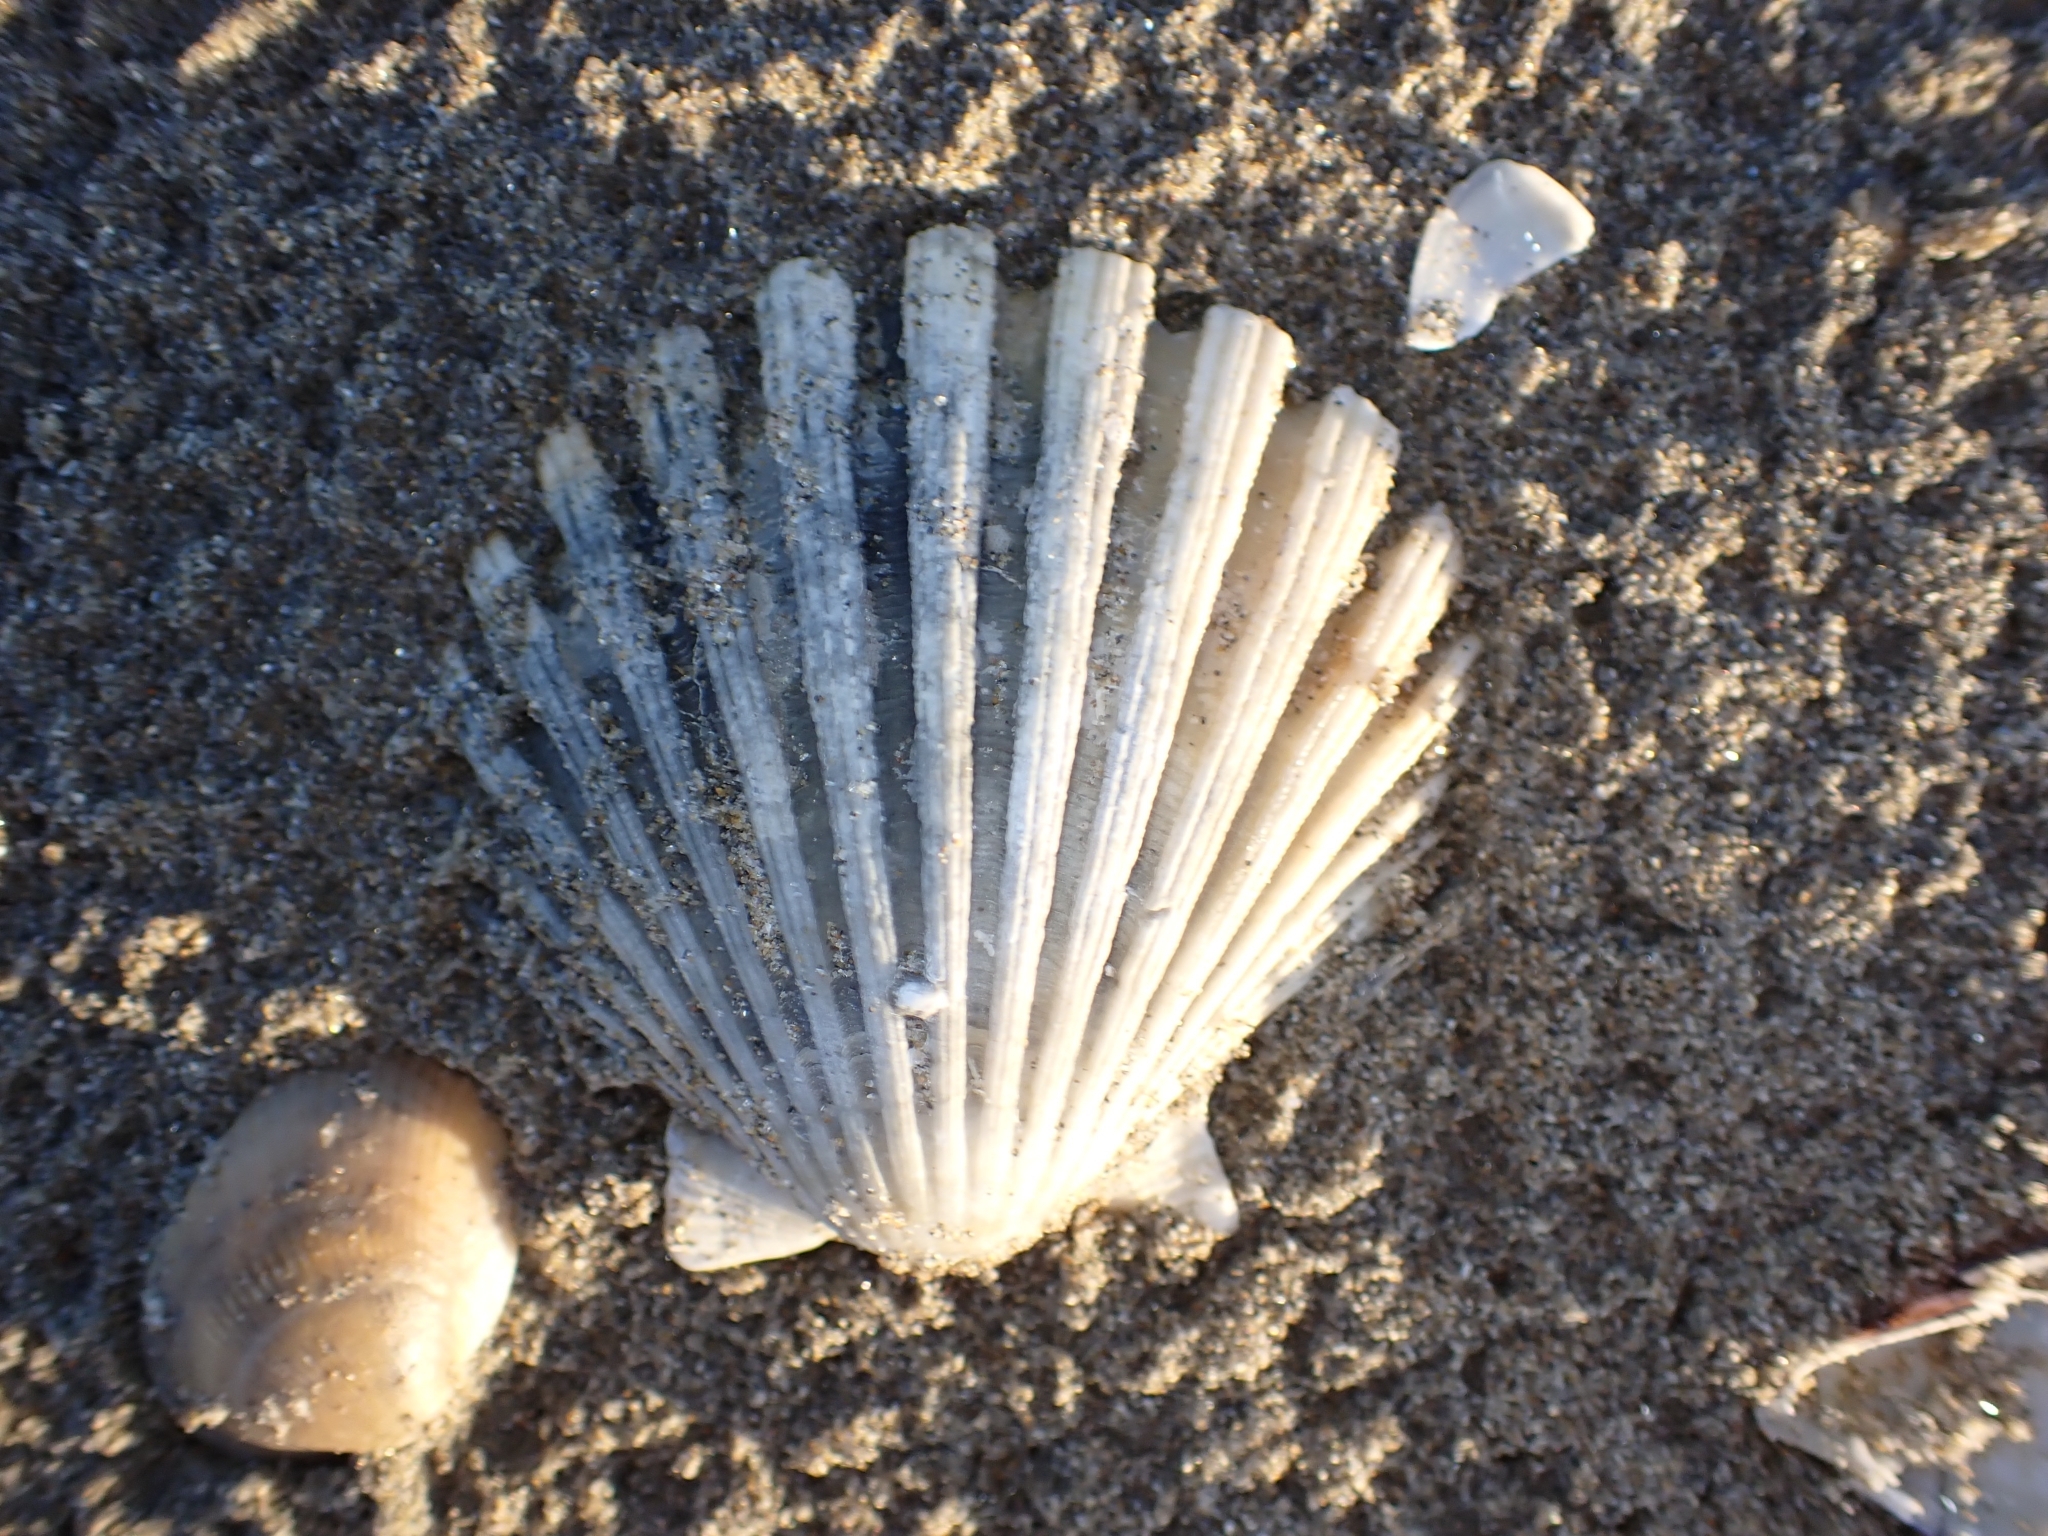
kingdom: Animalia
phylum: Mollusca
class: Bivalvia
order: Pectinida
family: Pectinidae
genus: Pecten
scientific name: Pecten jacobaeus
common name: St.james's scallop
